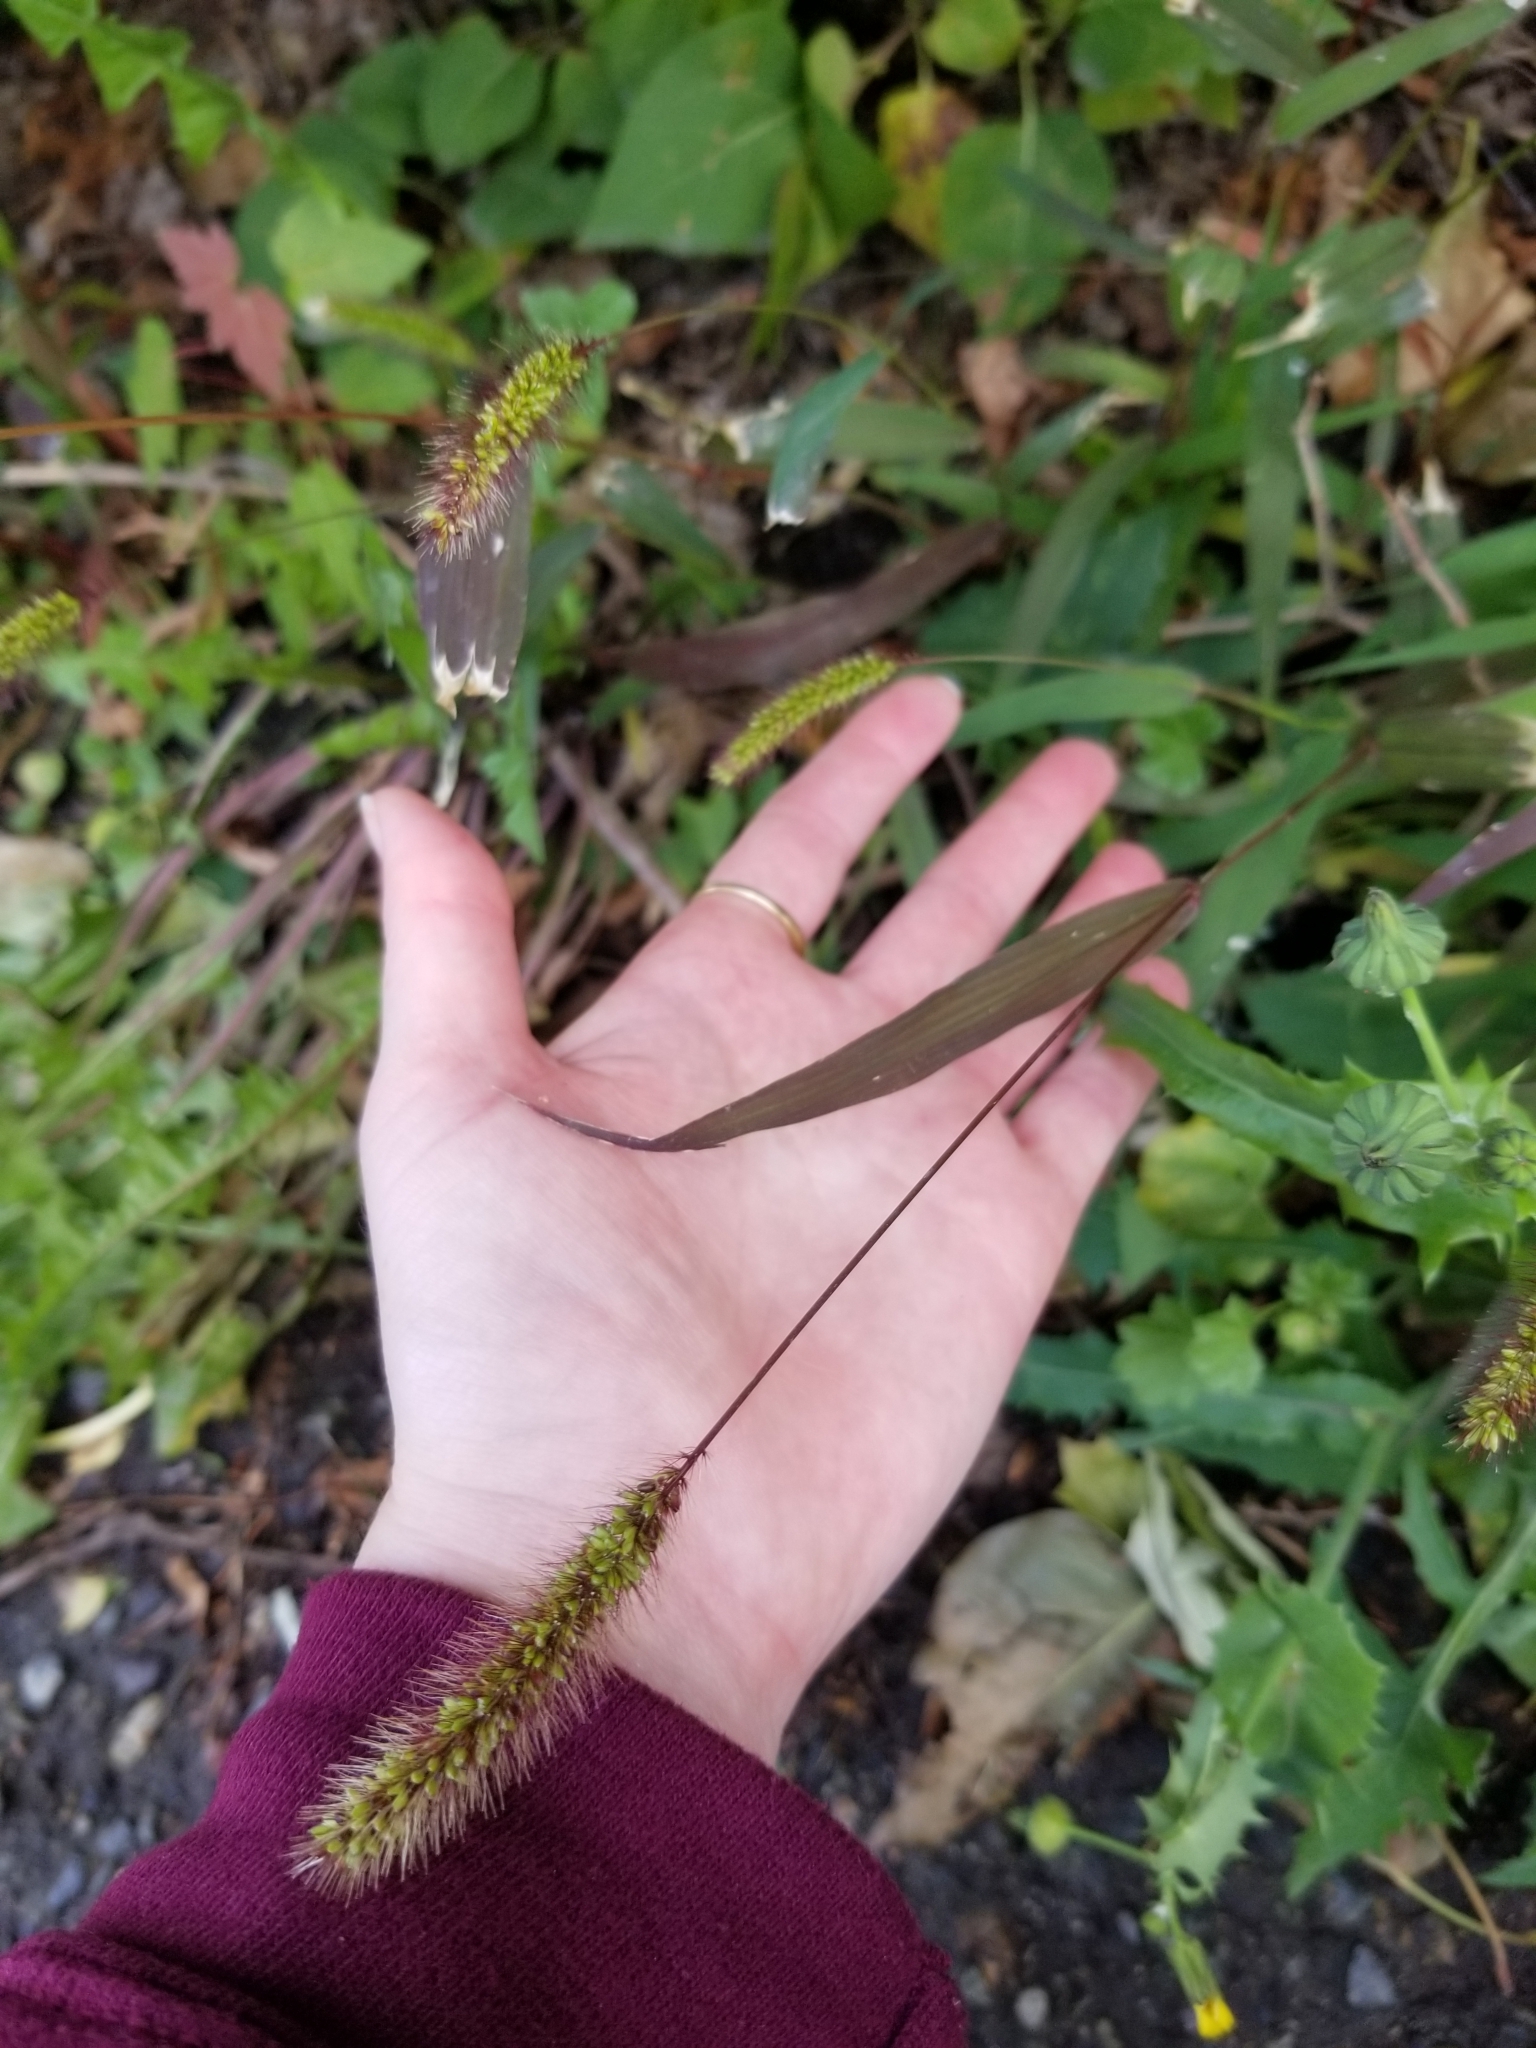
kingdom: Plantae
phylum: Tracheophyta
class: Liliopsida
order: Poales
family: Poaceae
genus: Setaria
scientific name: Setaria viridis
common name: Green bristlegrass
